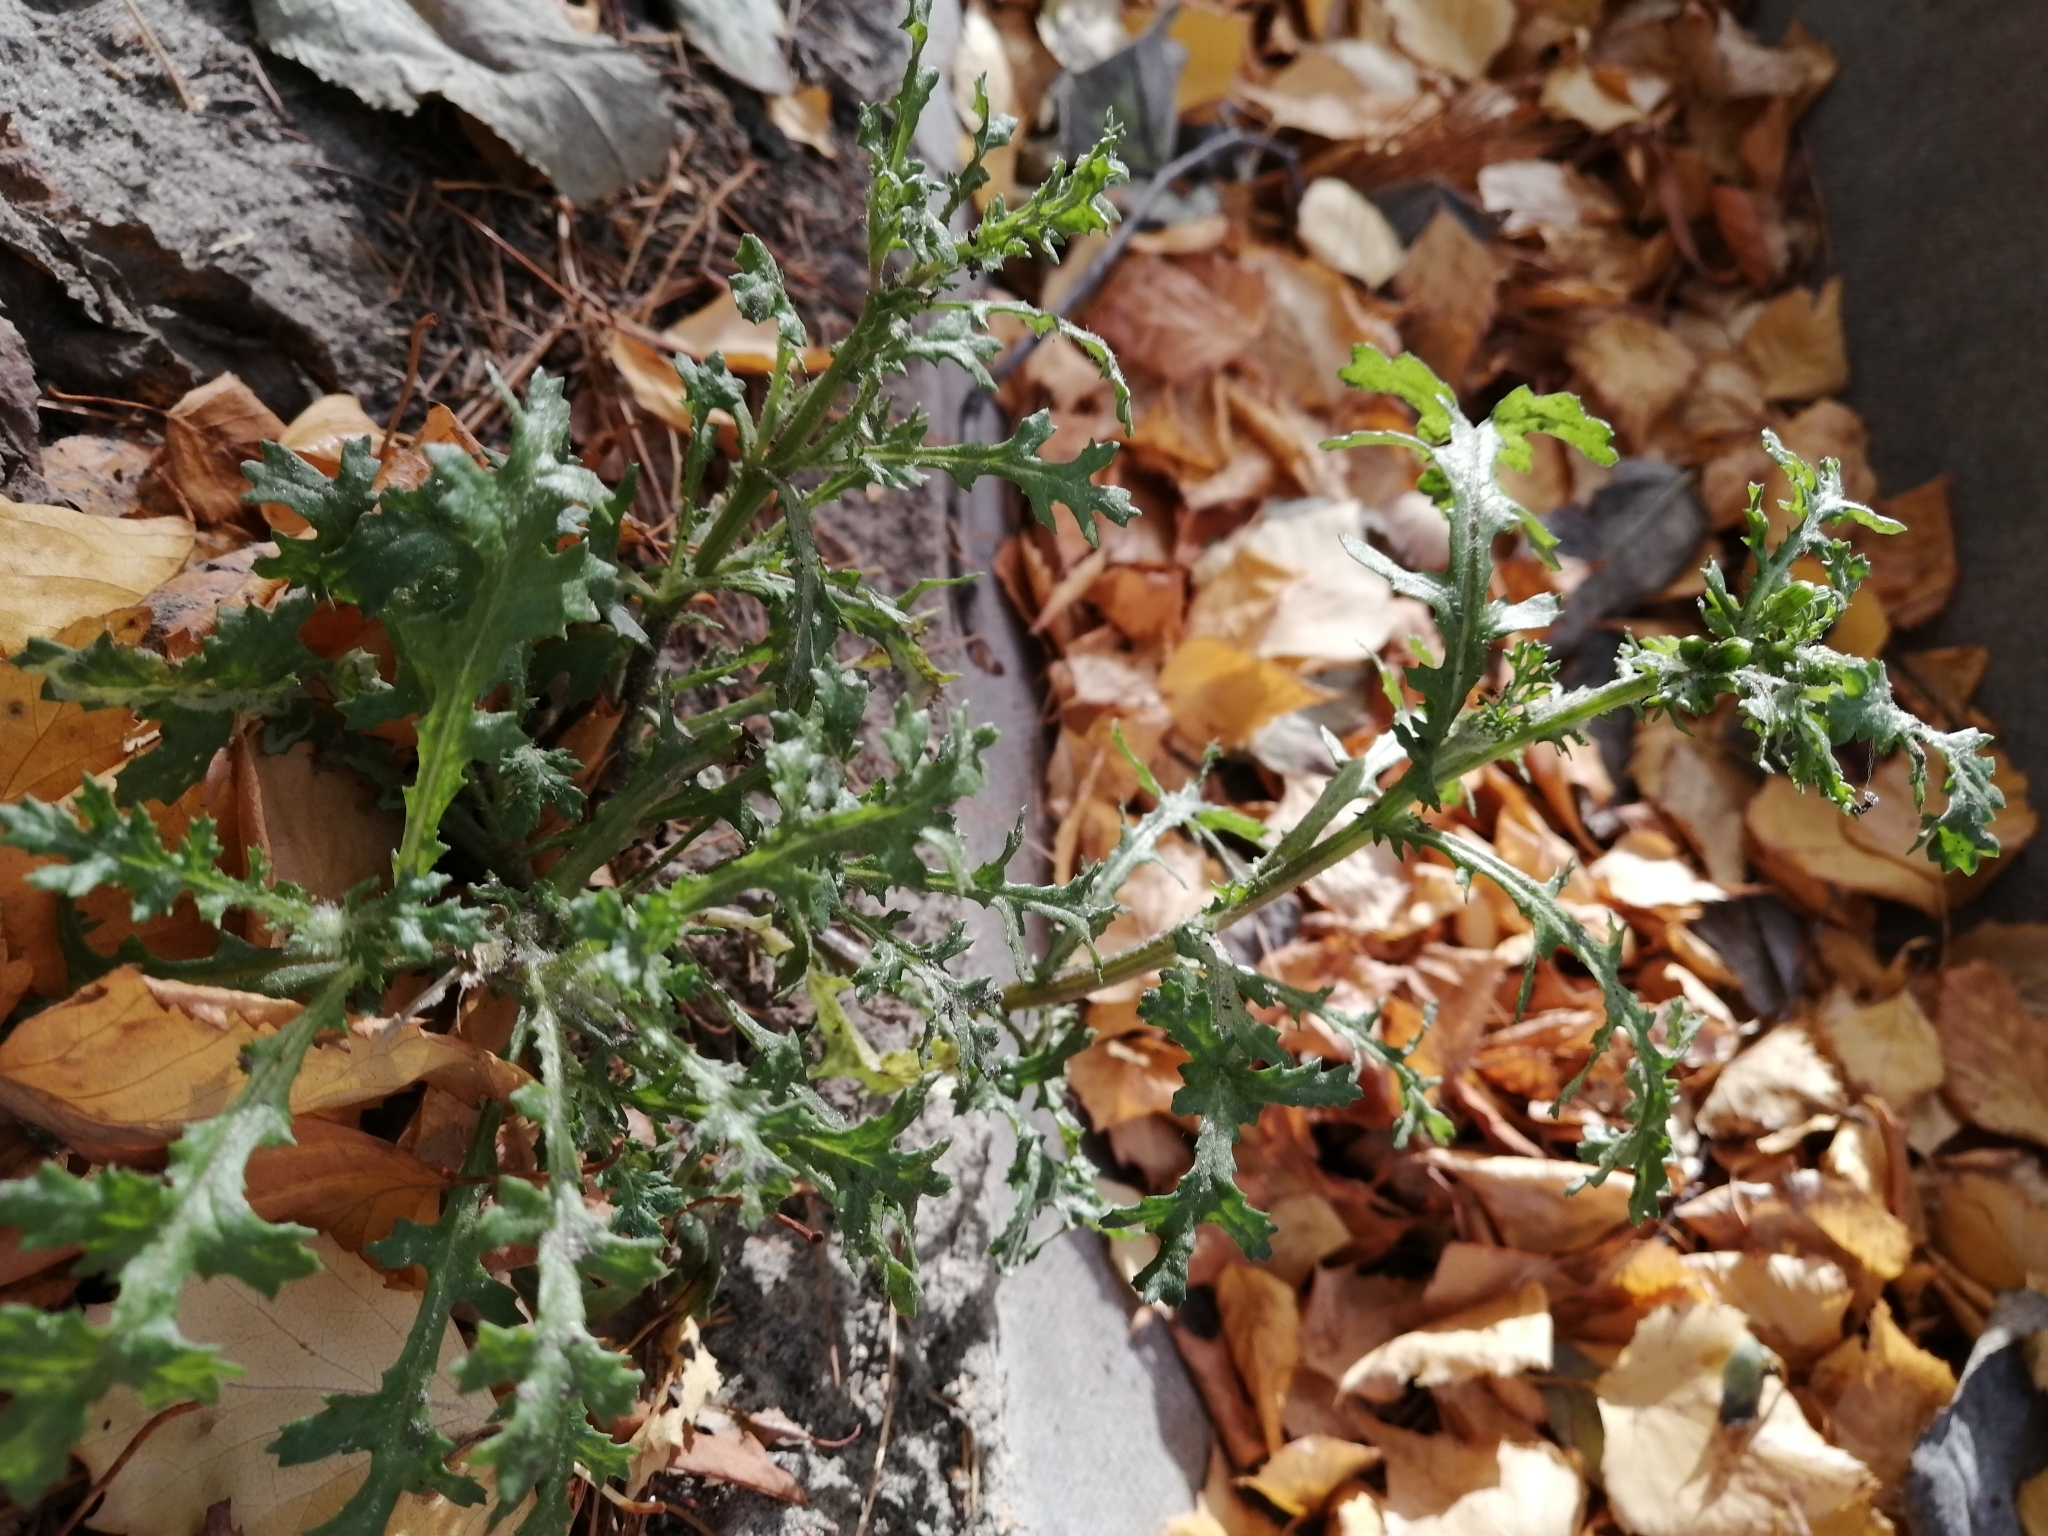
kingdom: Plantae
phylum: Tracheophyta
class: Magnoliopsida
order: Asterales
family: Asteraceae
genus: Senecio
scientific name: Senecio vulgaris
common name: Old-man-in-the-spring
